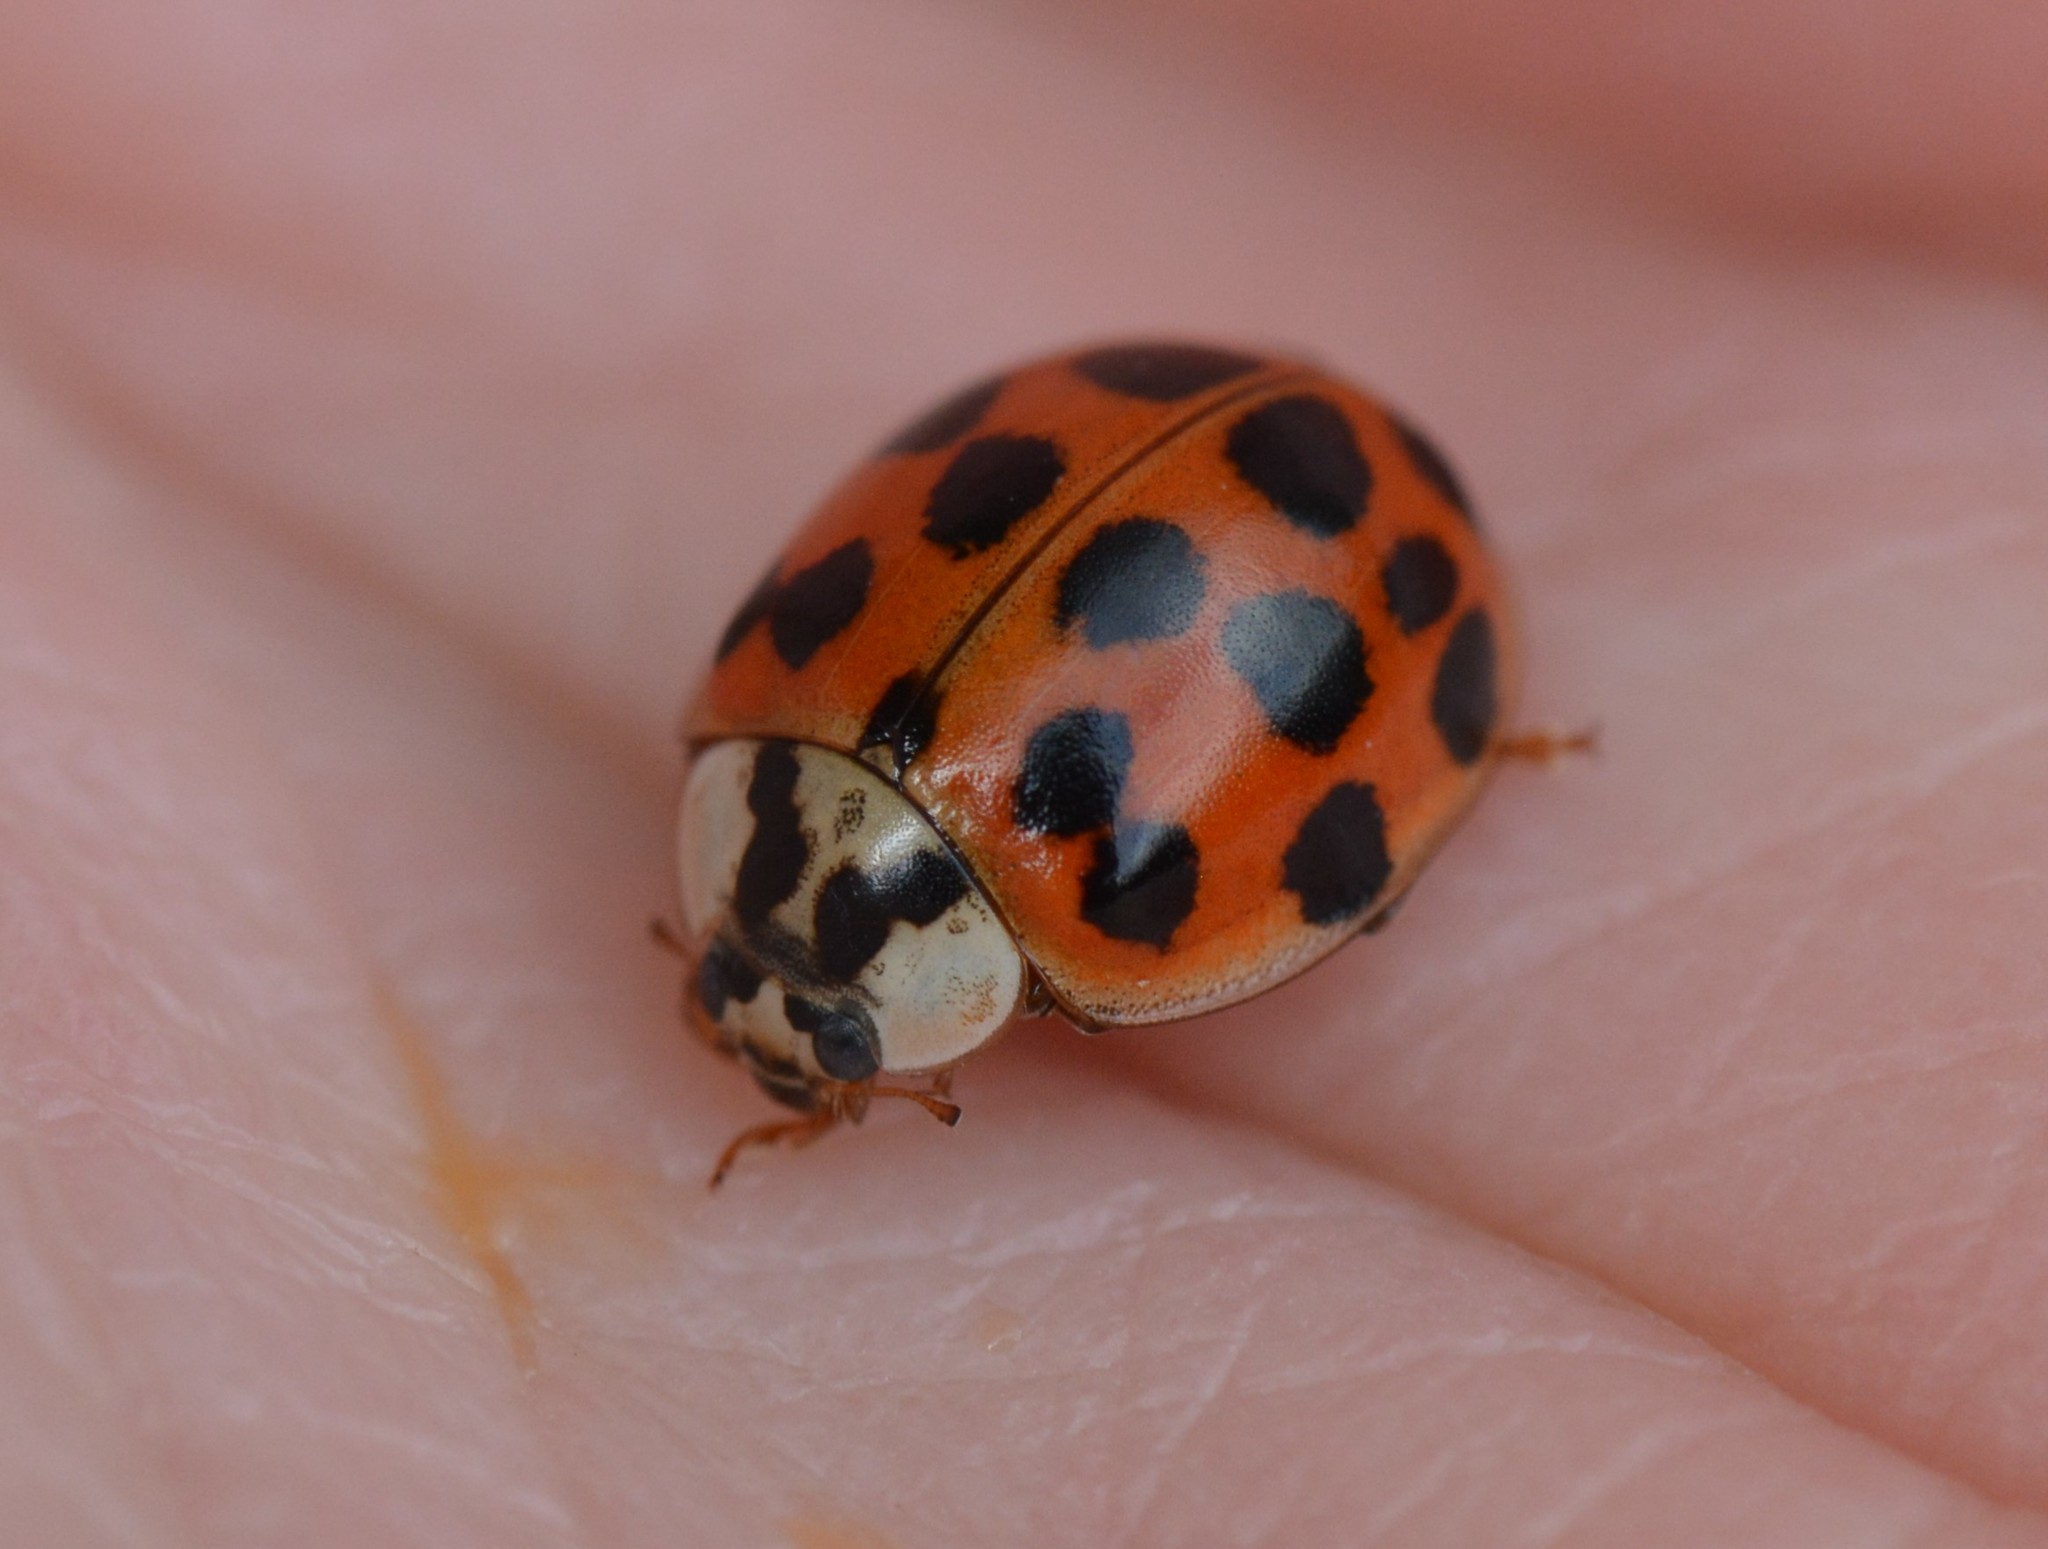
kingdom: Animalia
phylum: Arthropoda
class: Insecta
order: Coleoptera
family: Coccinellidae
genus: Harmonia
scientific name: Harmonia axyridis
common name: Harlequin ladybird
